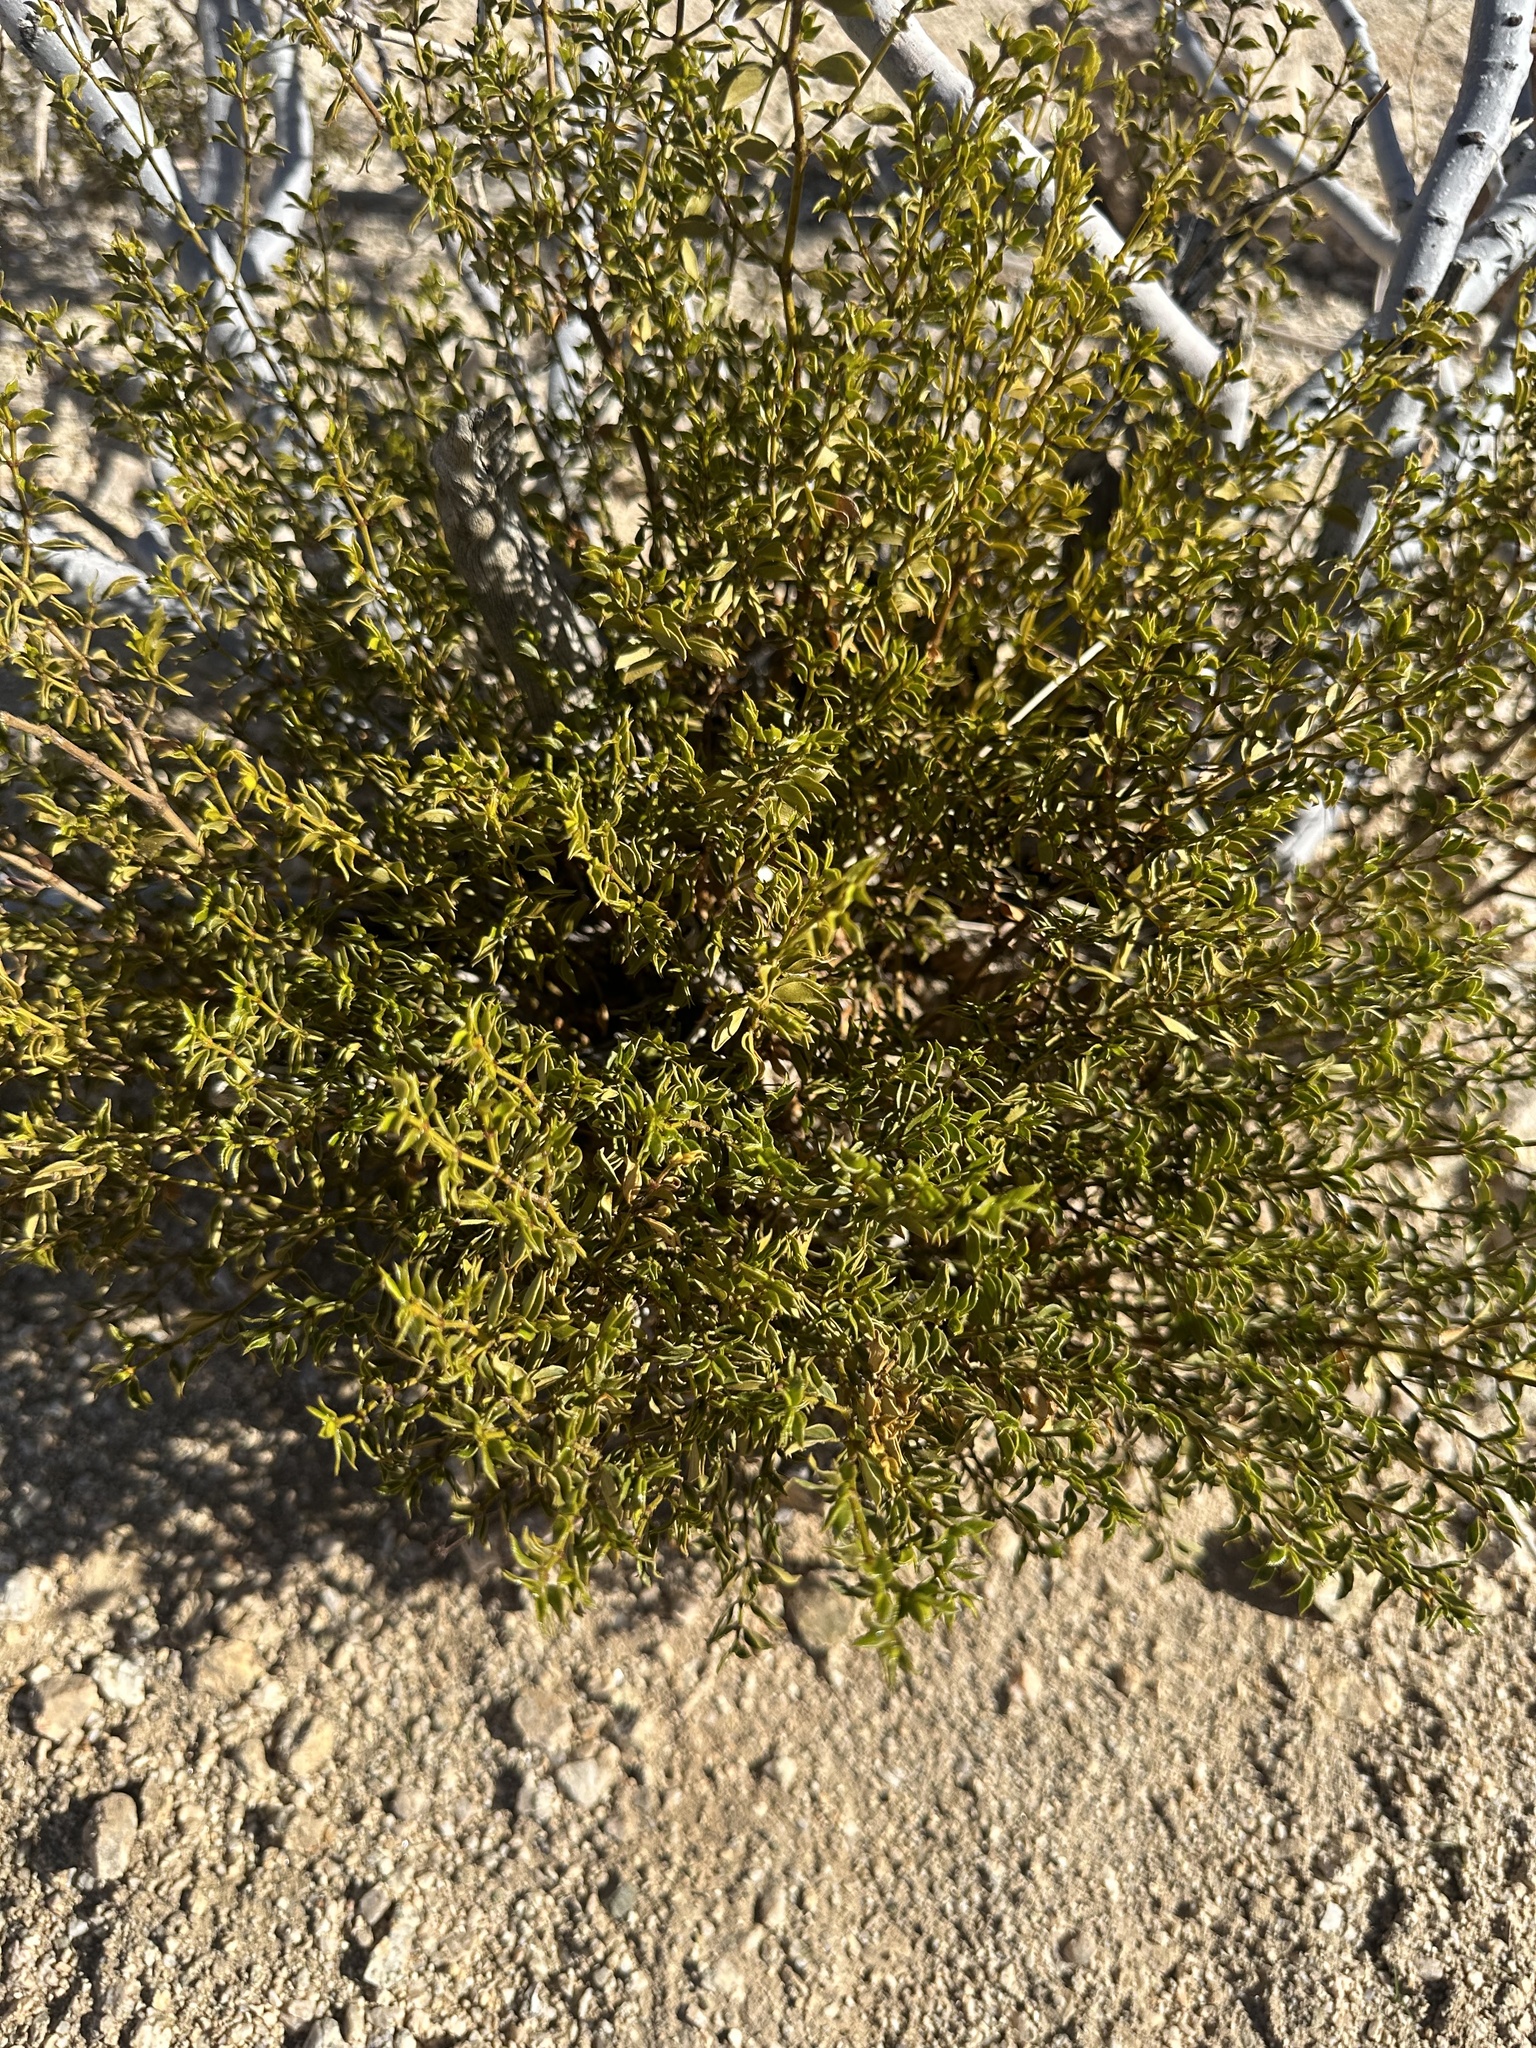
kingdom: Plantae
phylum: Tracheophyta
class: Magnoliopsida
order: Zygophyllales
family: Zygophyllaceae
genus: Larrea
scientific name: Larrea tridentata
